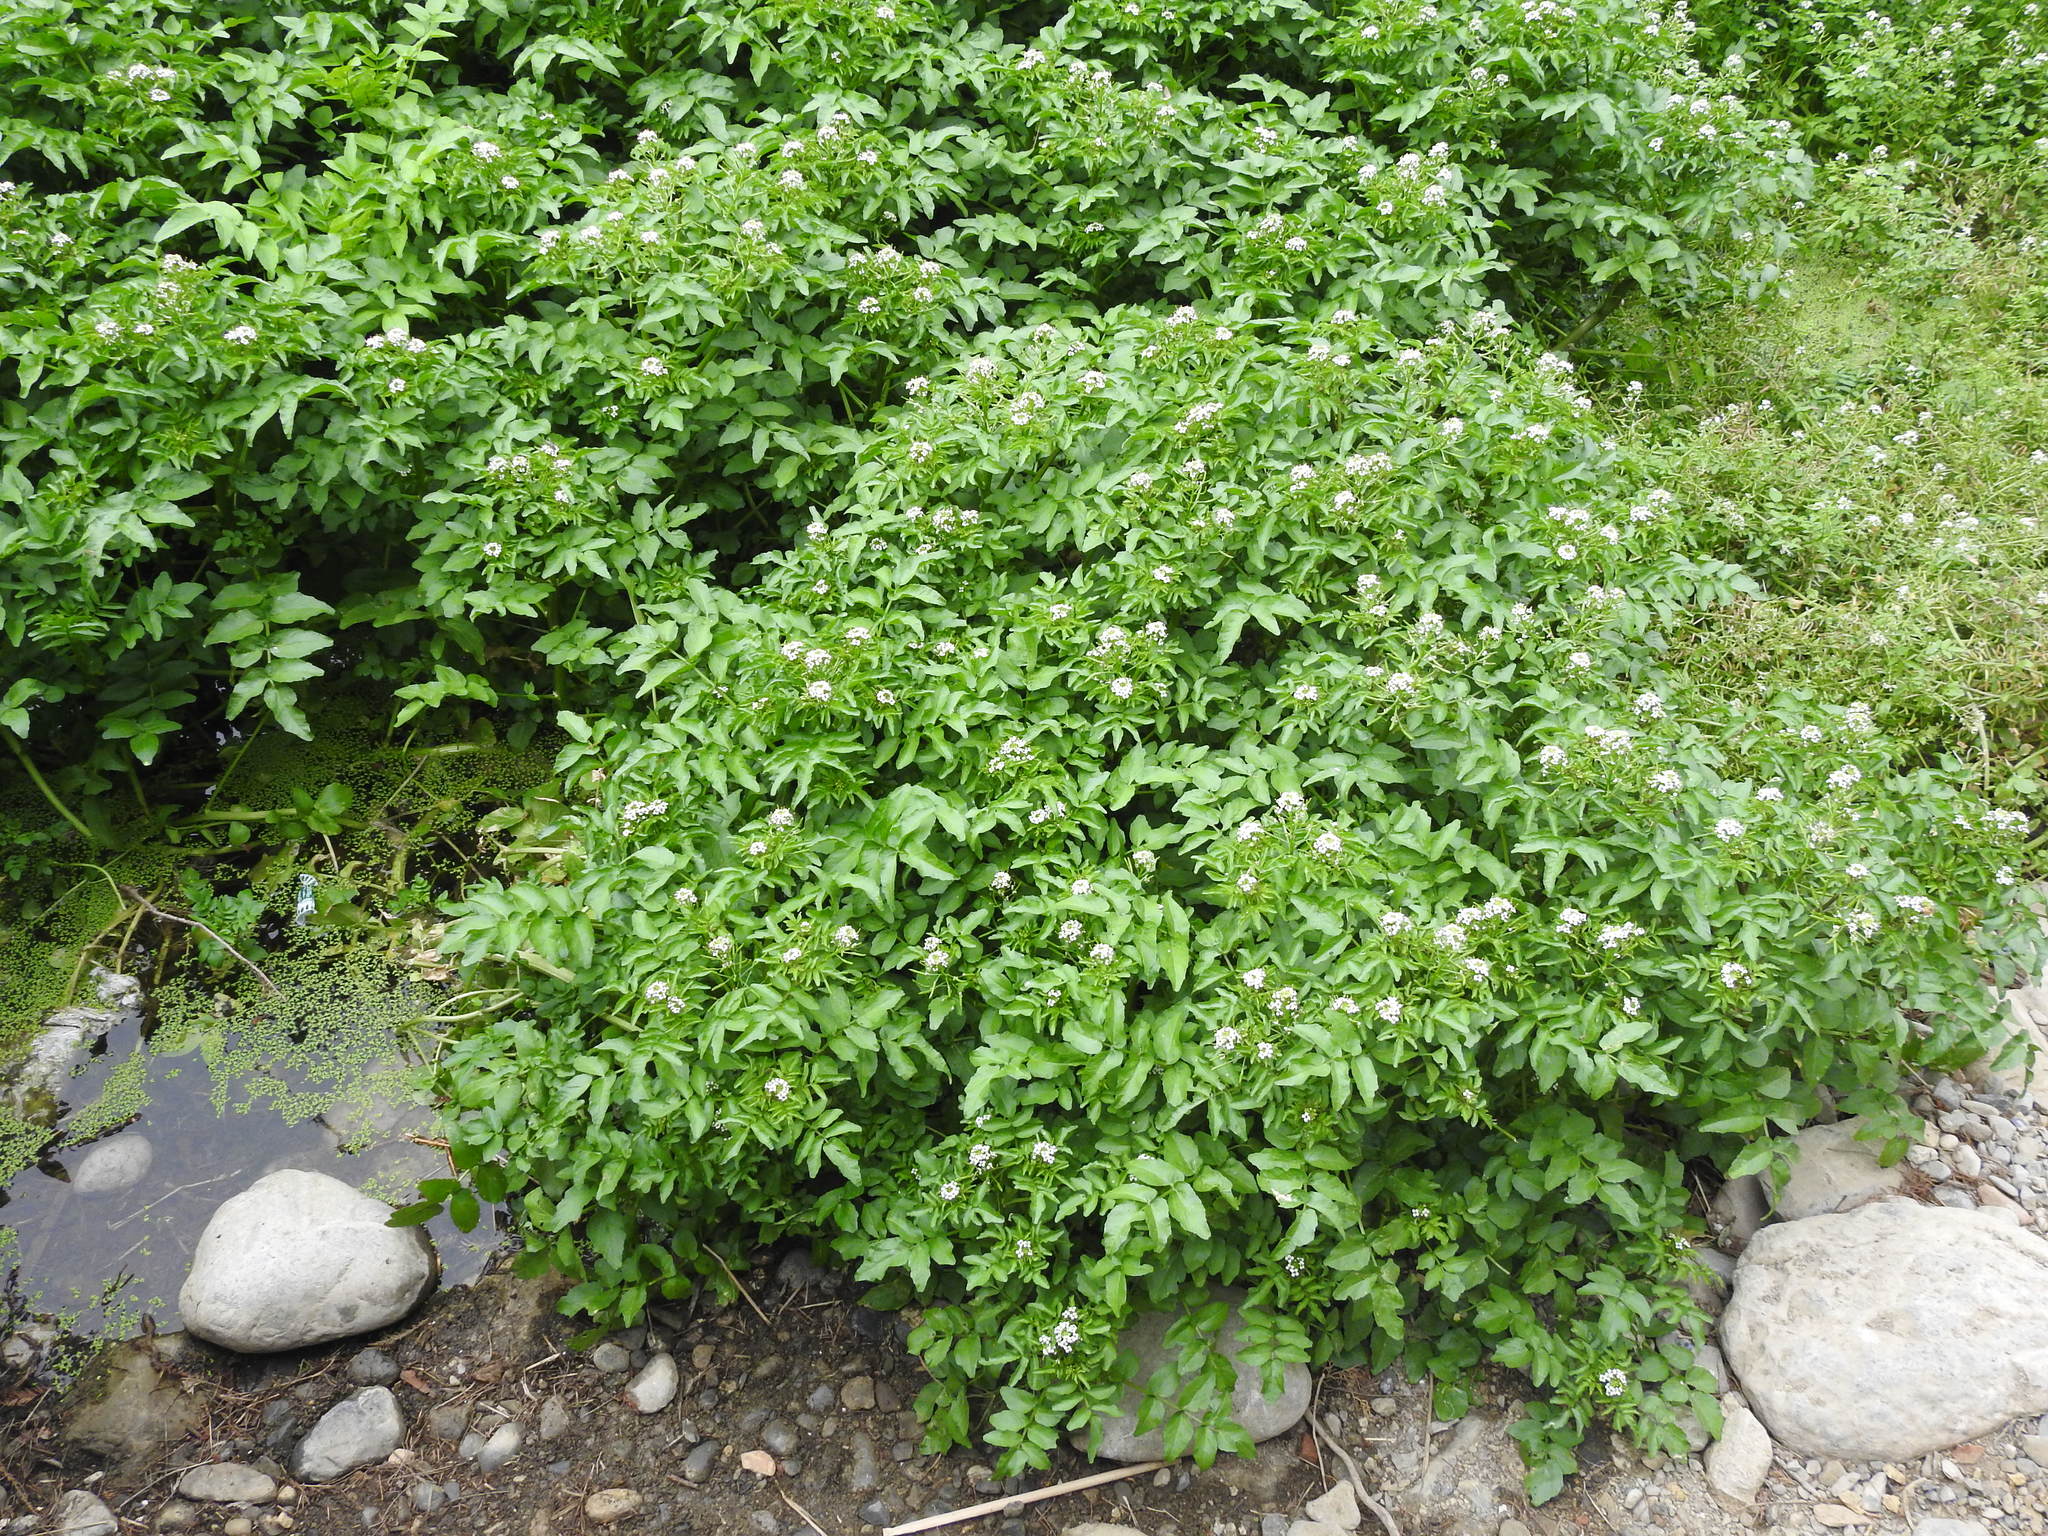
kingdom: Plantae
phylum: Tracheophyta
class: Magnoliopsida
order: Brassicales
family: Brassicaceae
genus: Nasturtium
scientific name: Nasturtium officinale
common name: Watercress
